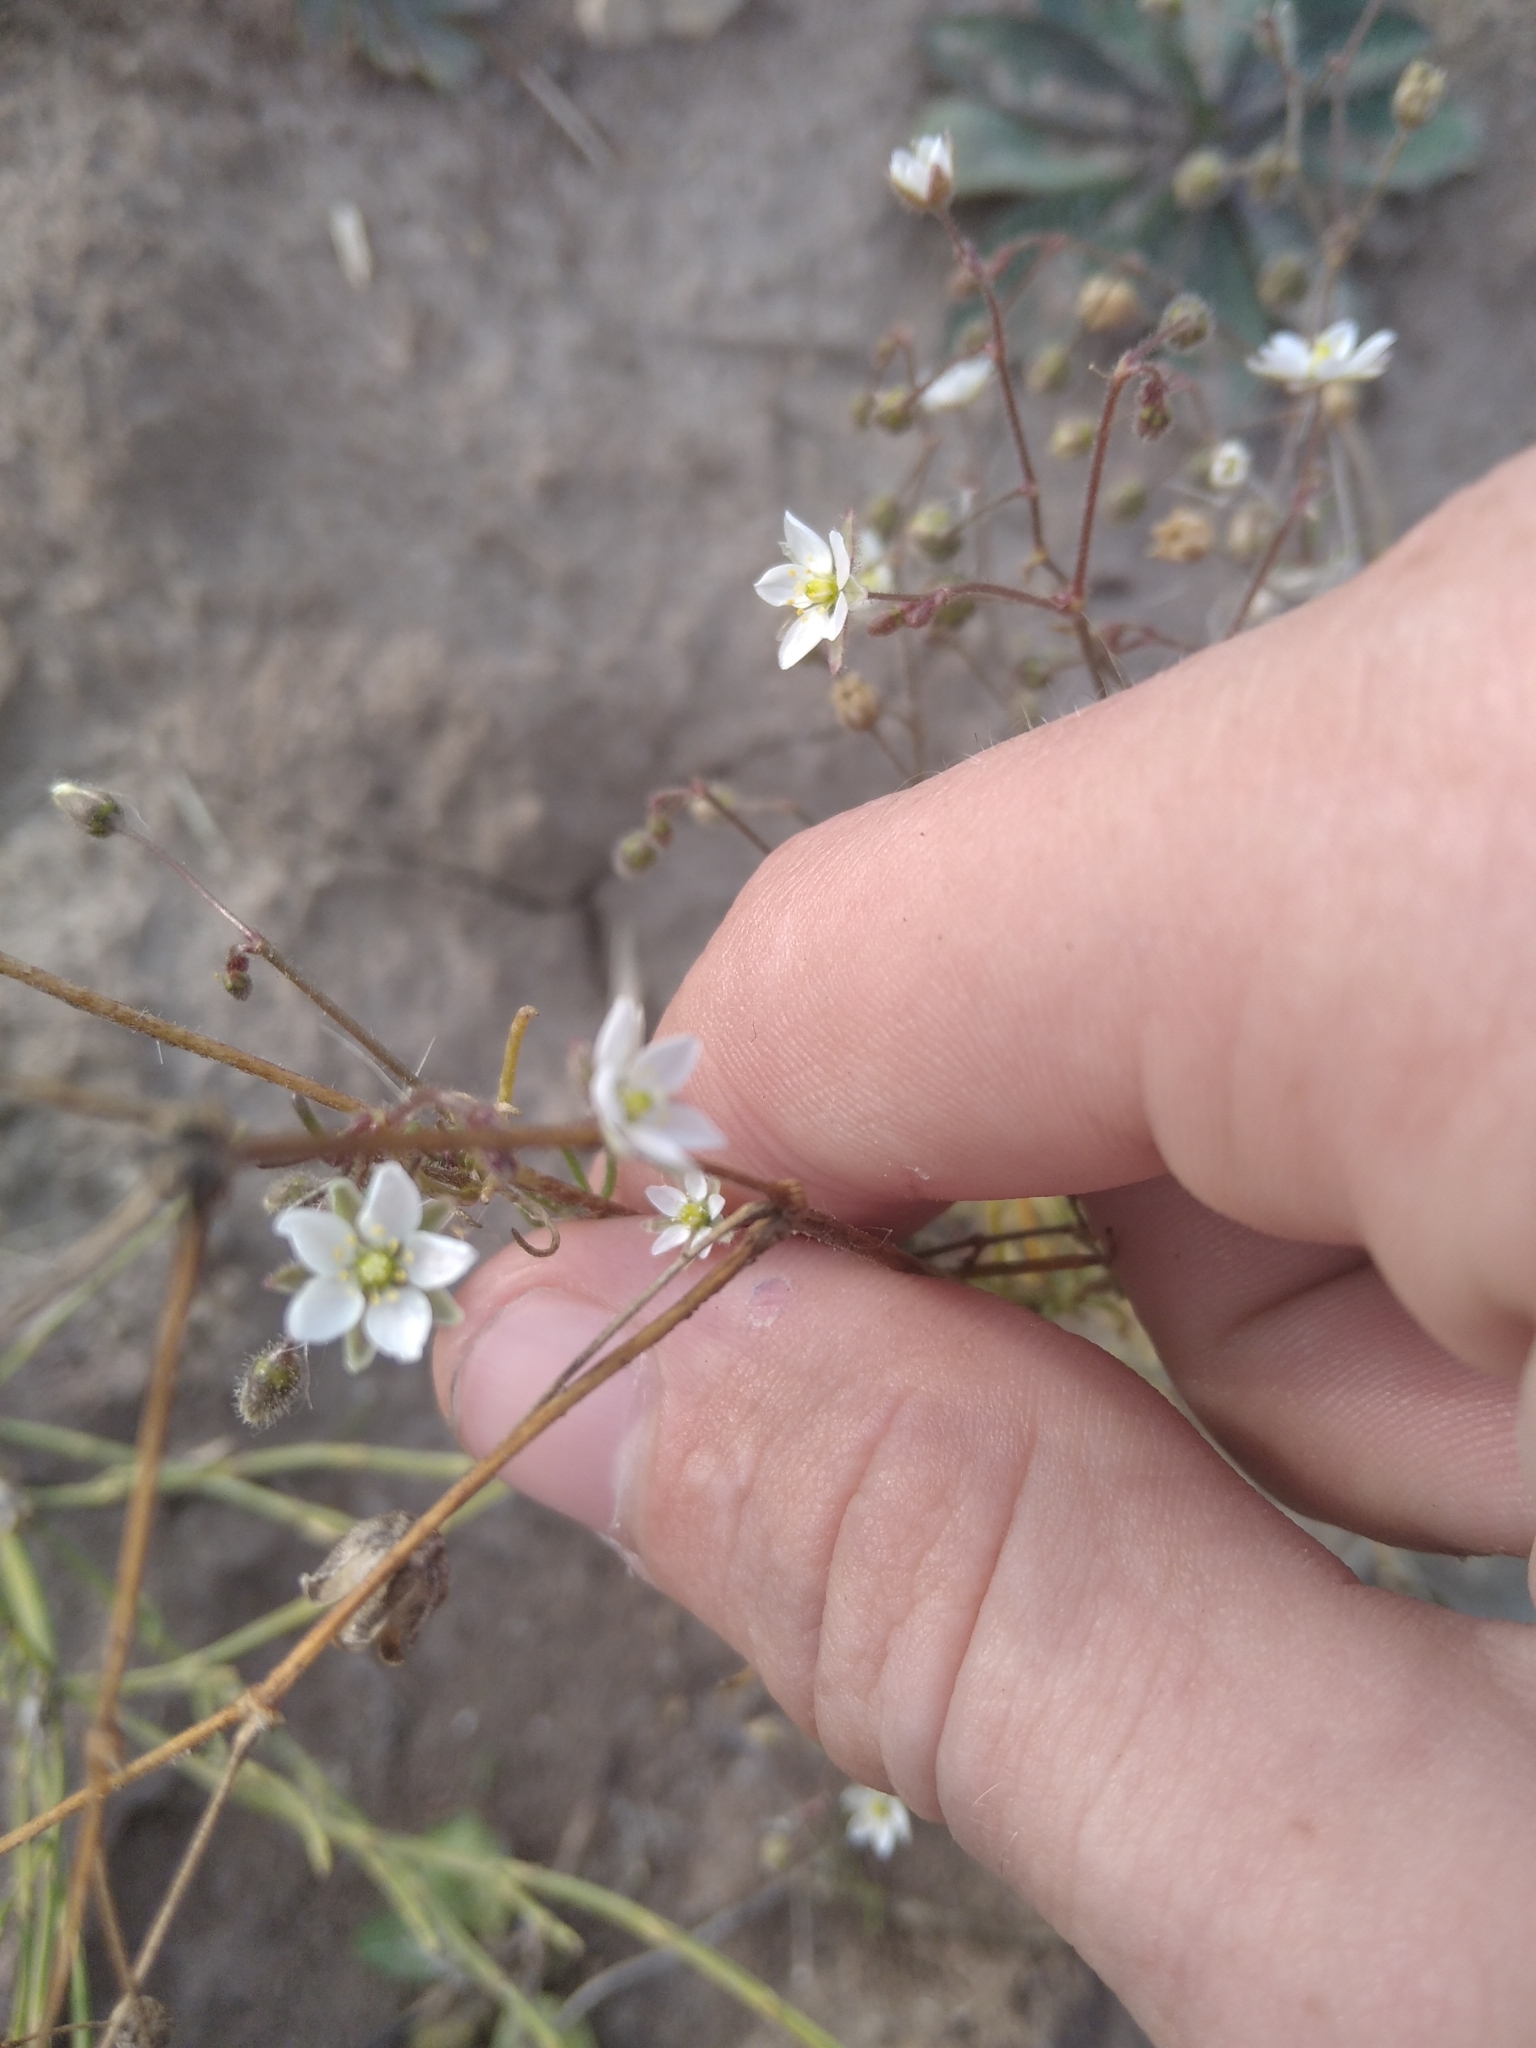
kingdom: Plantae
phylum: Tracheophyta
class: Magnoliopsida
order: Caryophyllales
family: Caryophyllaceae
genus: Spergula
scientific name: Spergula arvensis
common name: Corn spurrey
